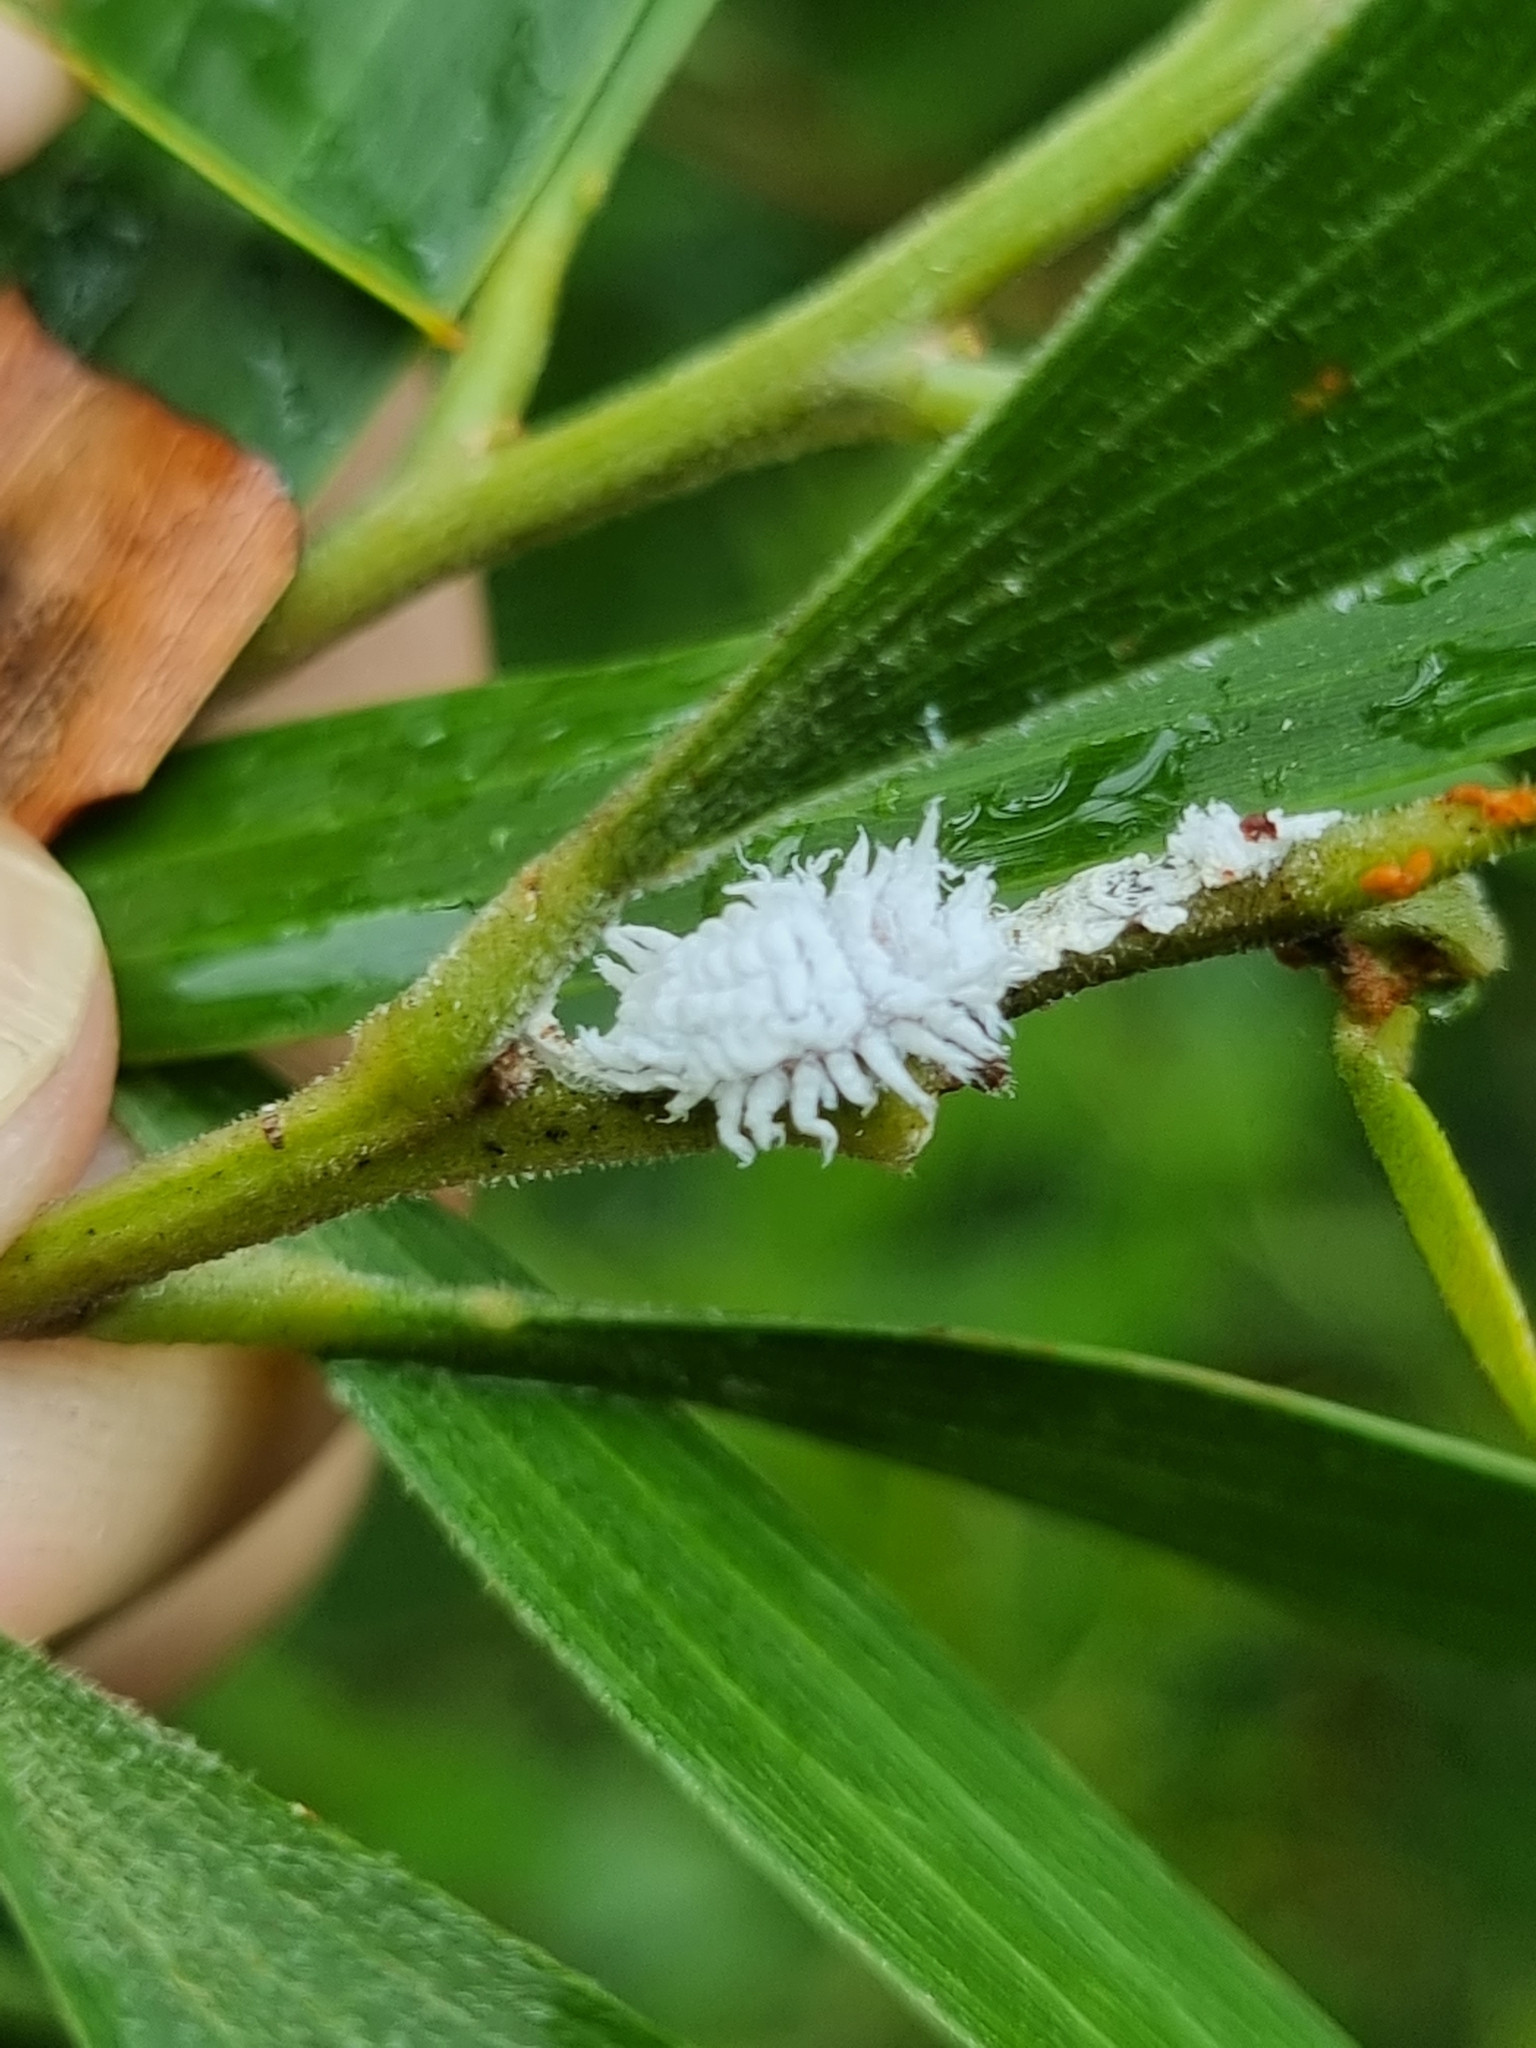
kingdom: Animalia
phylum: Arthropoda
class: Insecta
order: Coleoptera
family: Coccinellidae
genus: Cryptolaemus
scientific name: Cryptolaemus montrouzieri
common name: Mealybug destroyer
